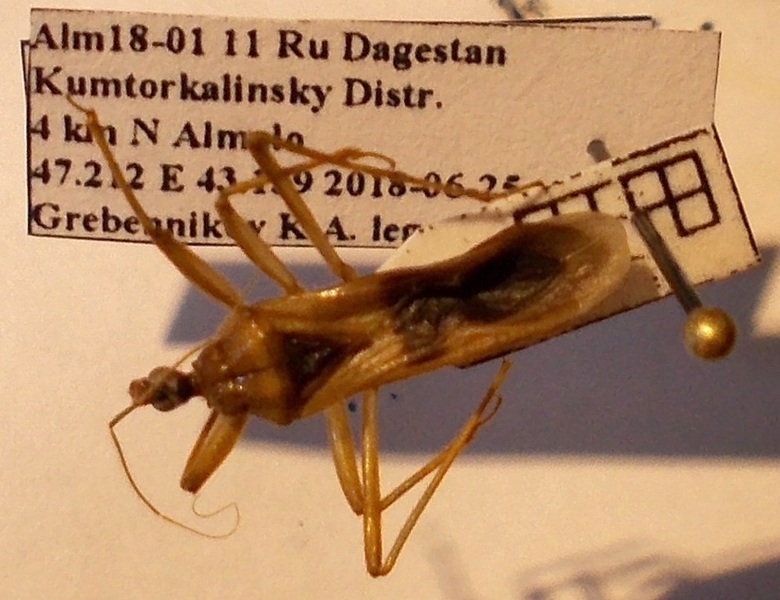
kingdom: Animalia
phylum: Arthropoda
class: Insecta
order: Hemiptera
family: Reduviidae
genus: Reduvius
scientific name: Reduvius testaceus
